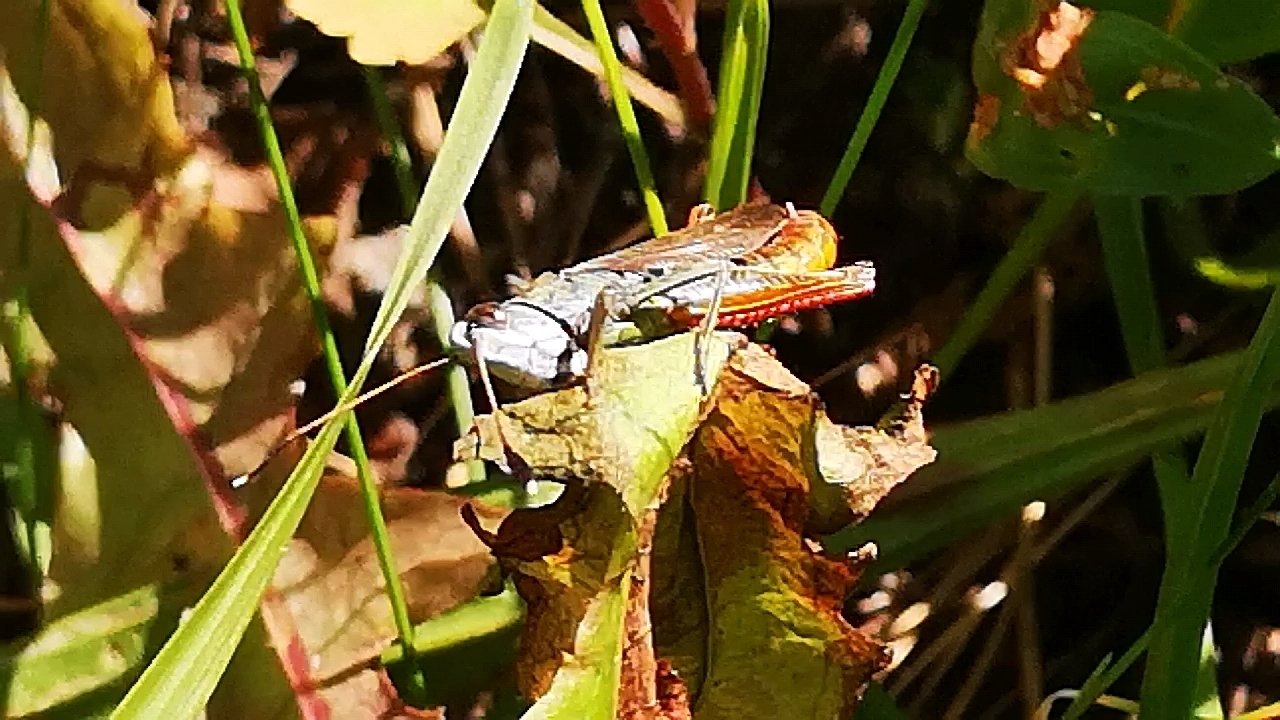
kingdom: Animalia
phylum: Arthropoda
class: Insecta
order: Orthoptera
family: Acrididae
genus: Gomphocerippus
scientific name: Gomphocerippus rufus
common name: Rufous grasshopper
